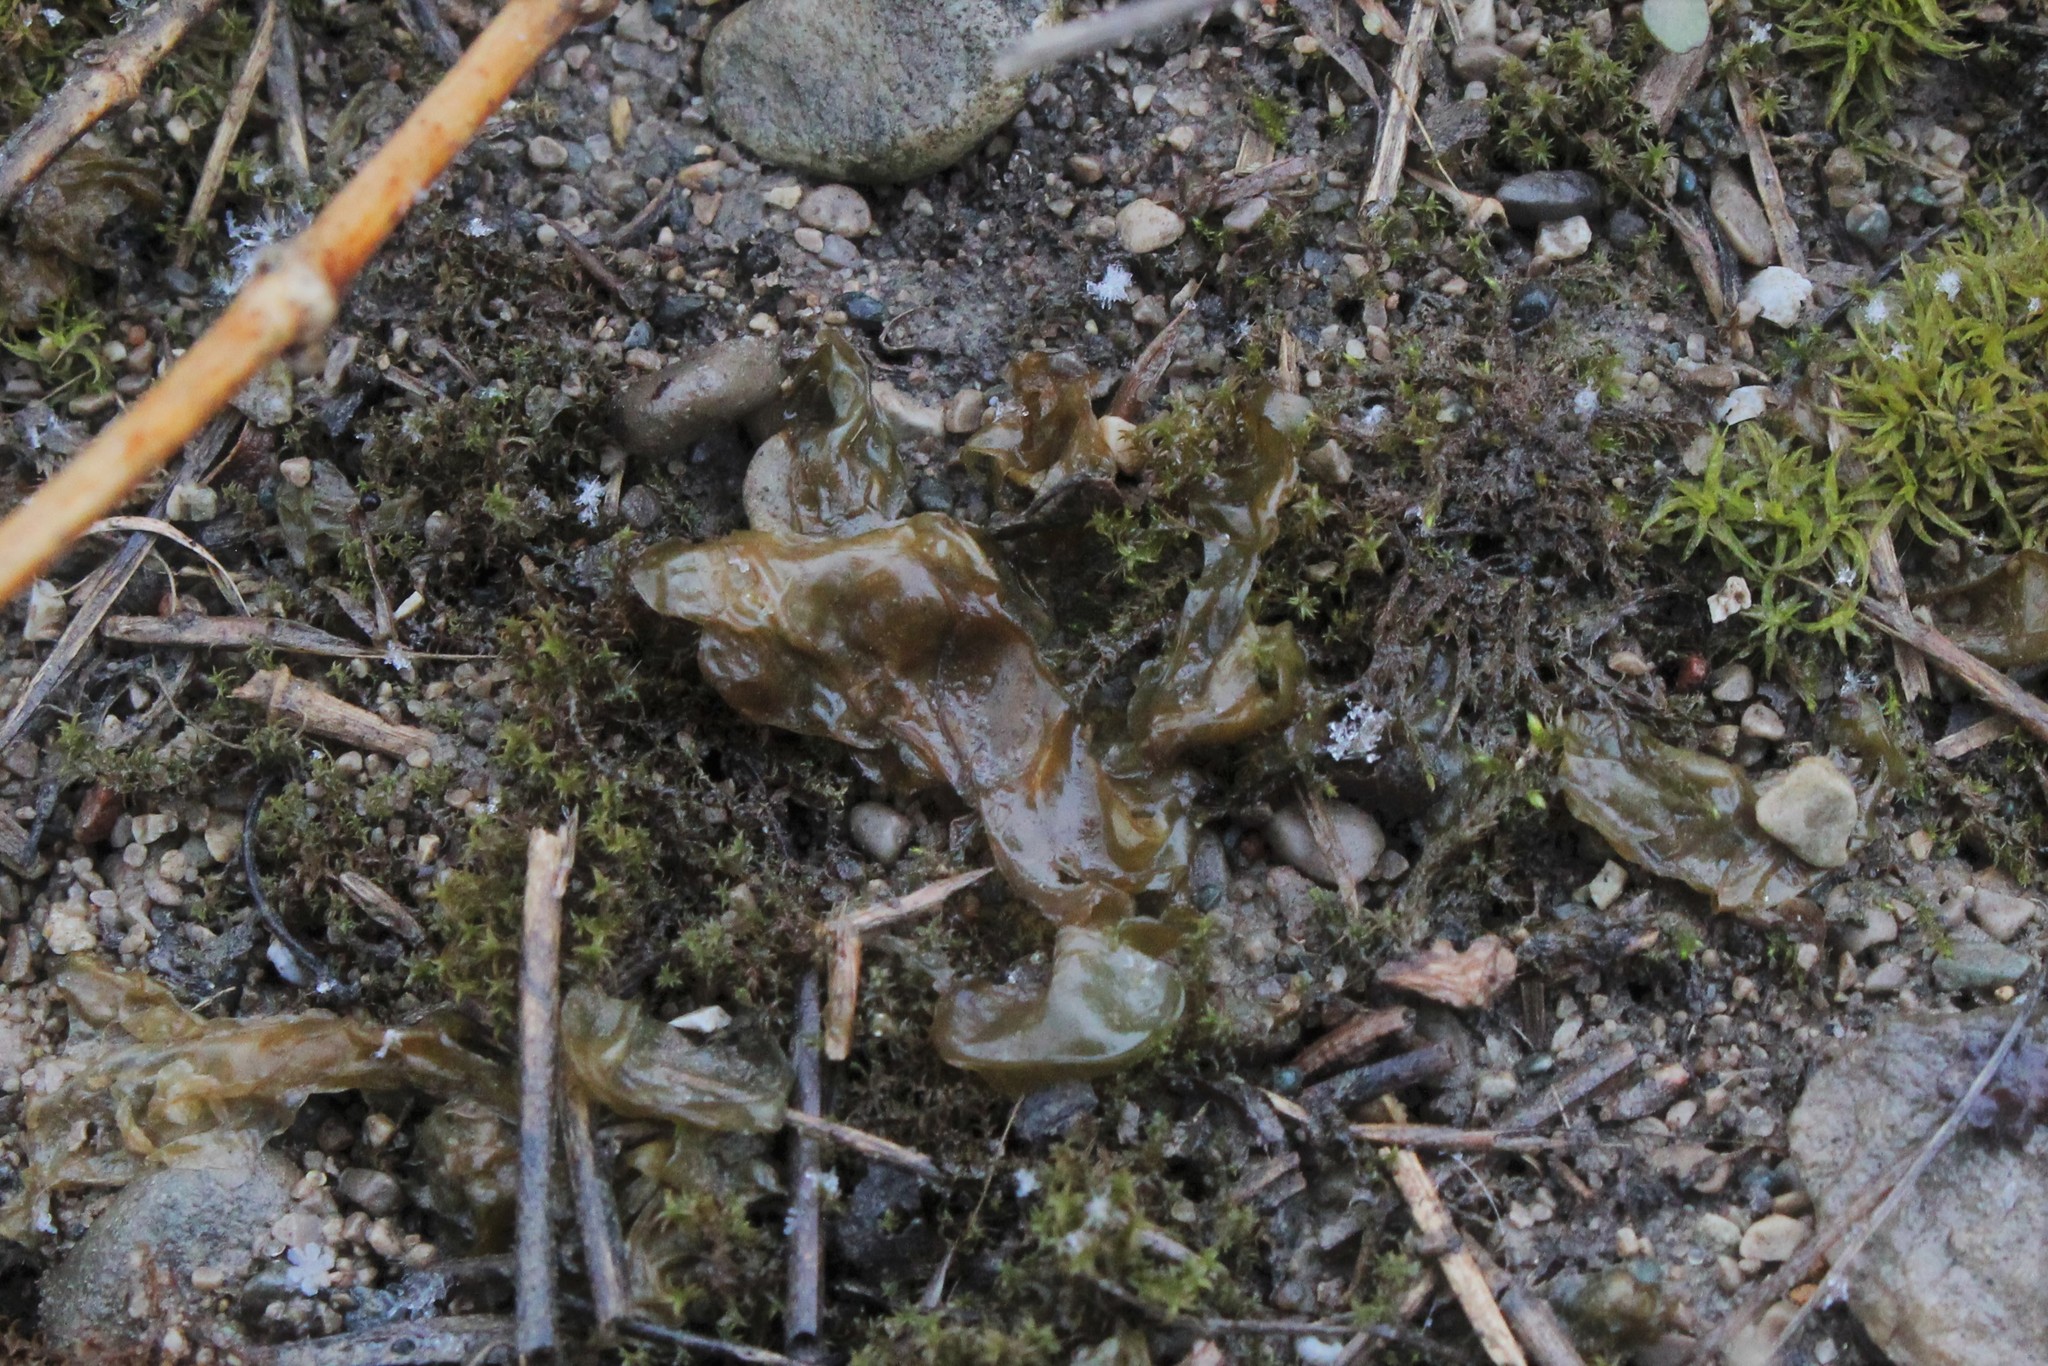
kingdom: Bacteria
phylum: Cyanobacteria
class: Cyanobacteriia
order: Cyanobacteriales
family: Nostocaceae
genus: Nostoc
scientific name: Nostoc commune
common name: Star jelly
